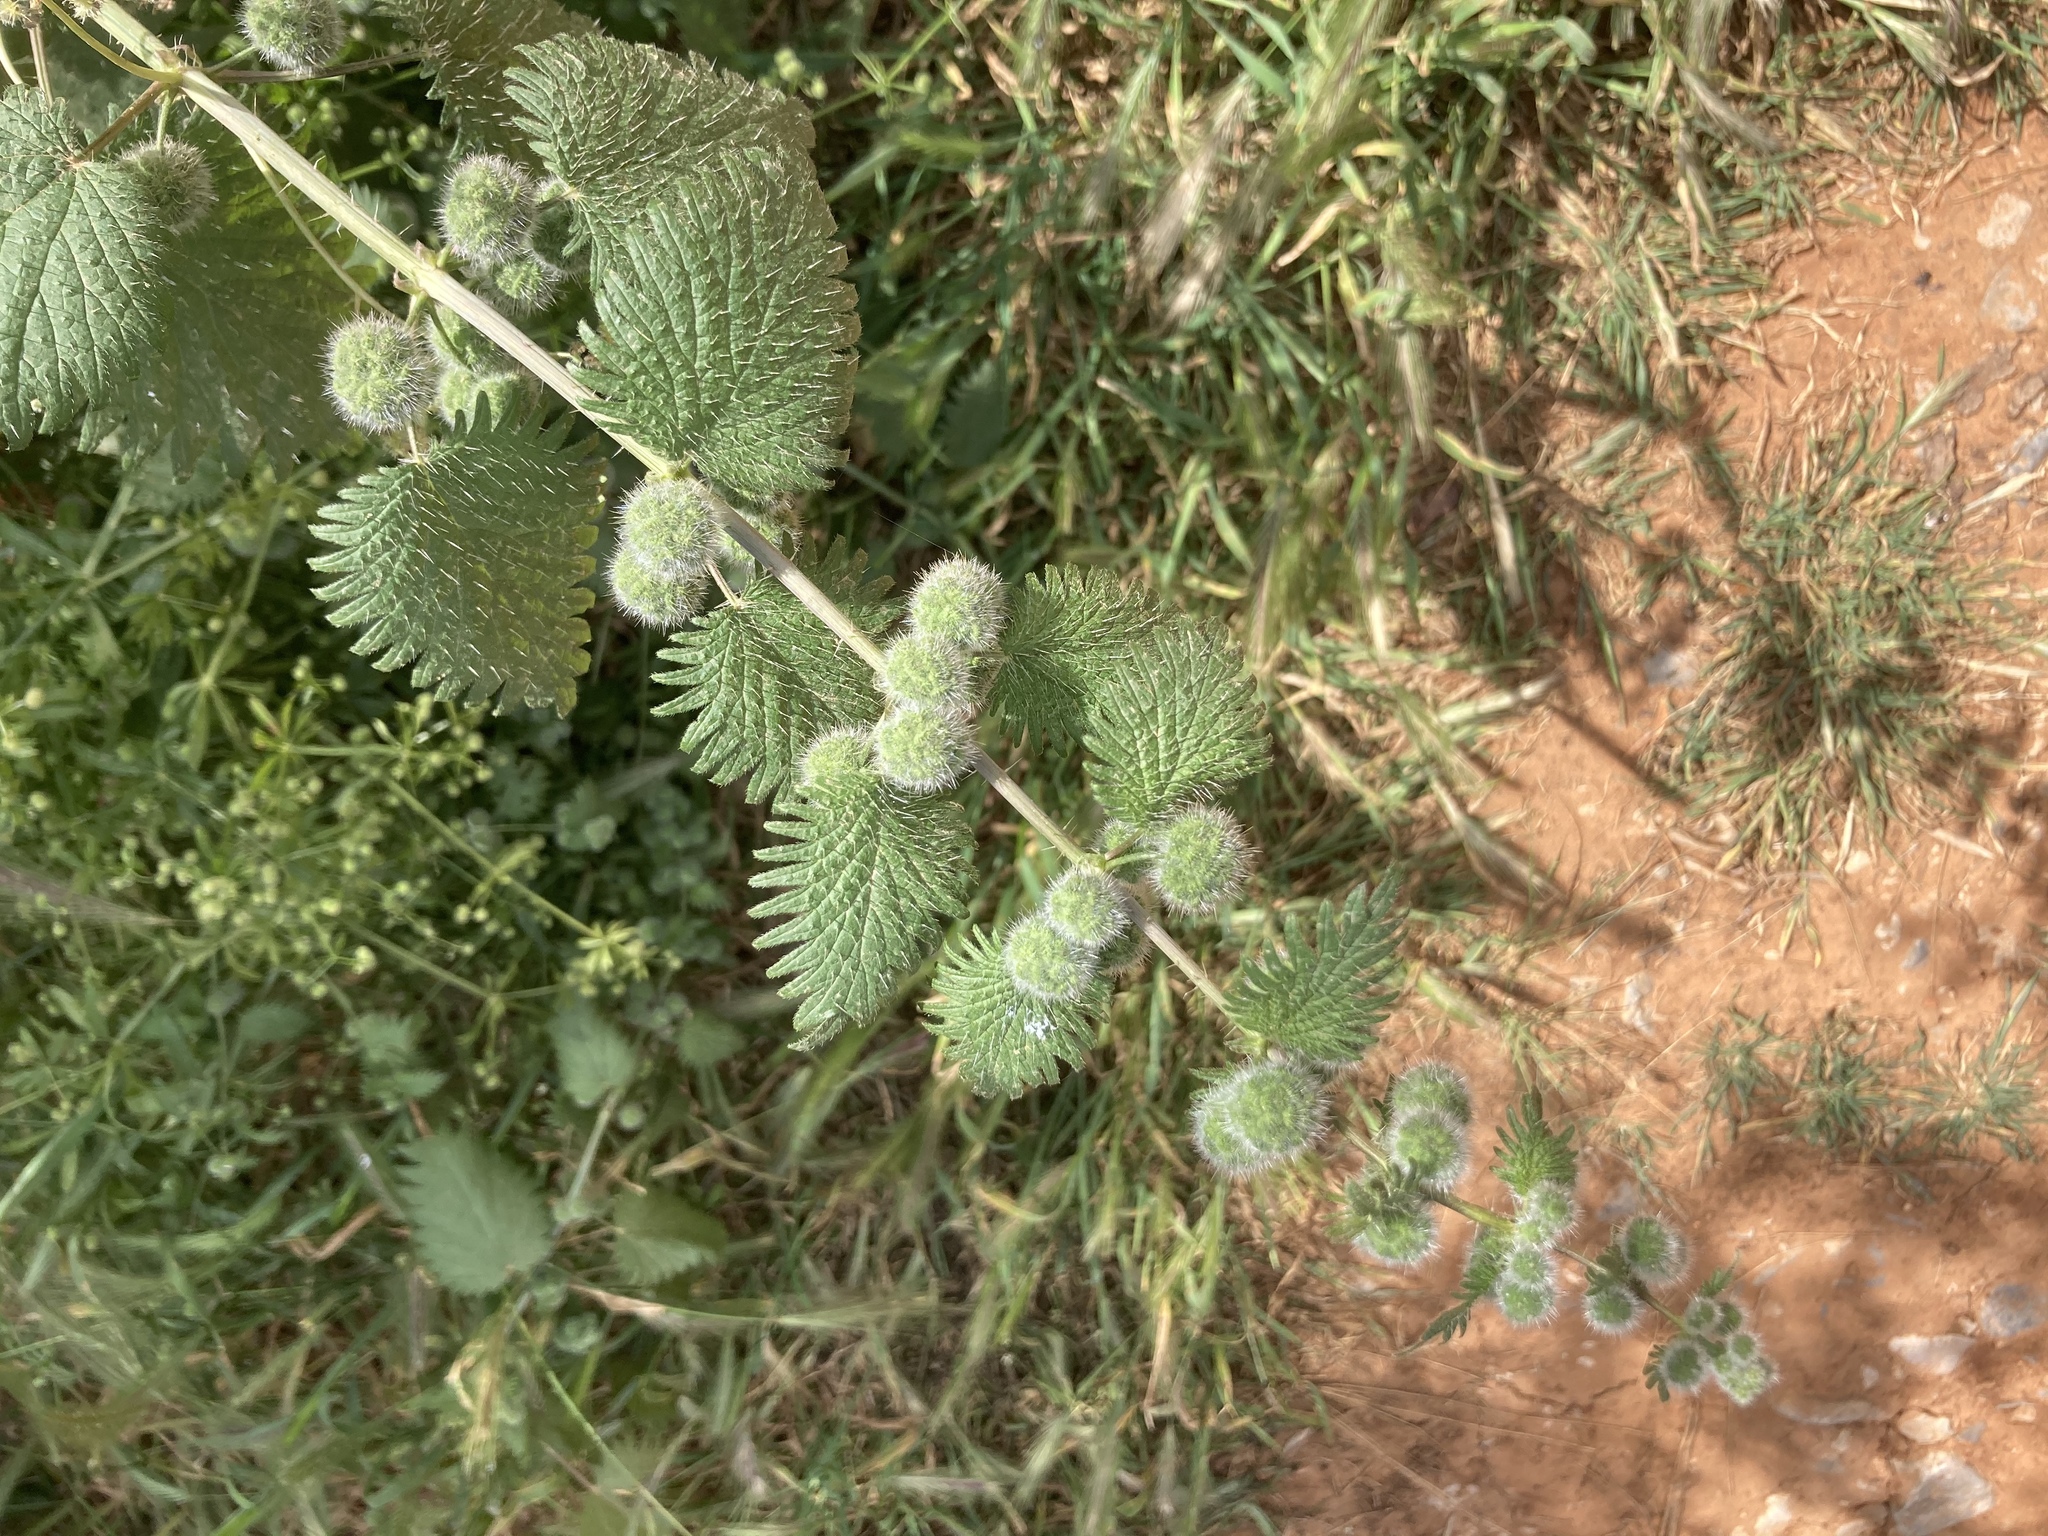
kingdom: Plantae
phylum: Tracheophyta
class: Magnoliopsida
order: Rosales
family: Urticaceae
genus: Urtica
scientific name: Urtica pilulifera
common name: Roman nettle
